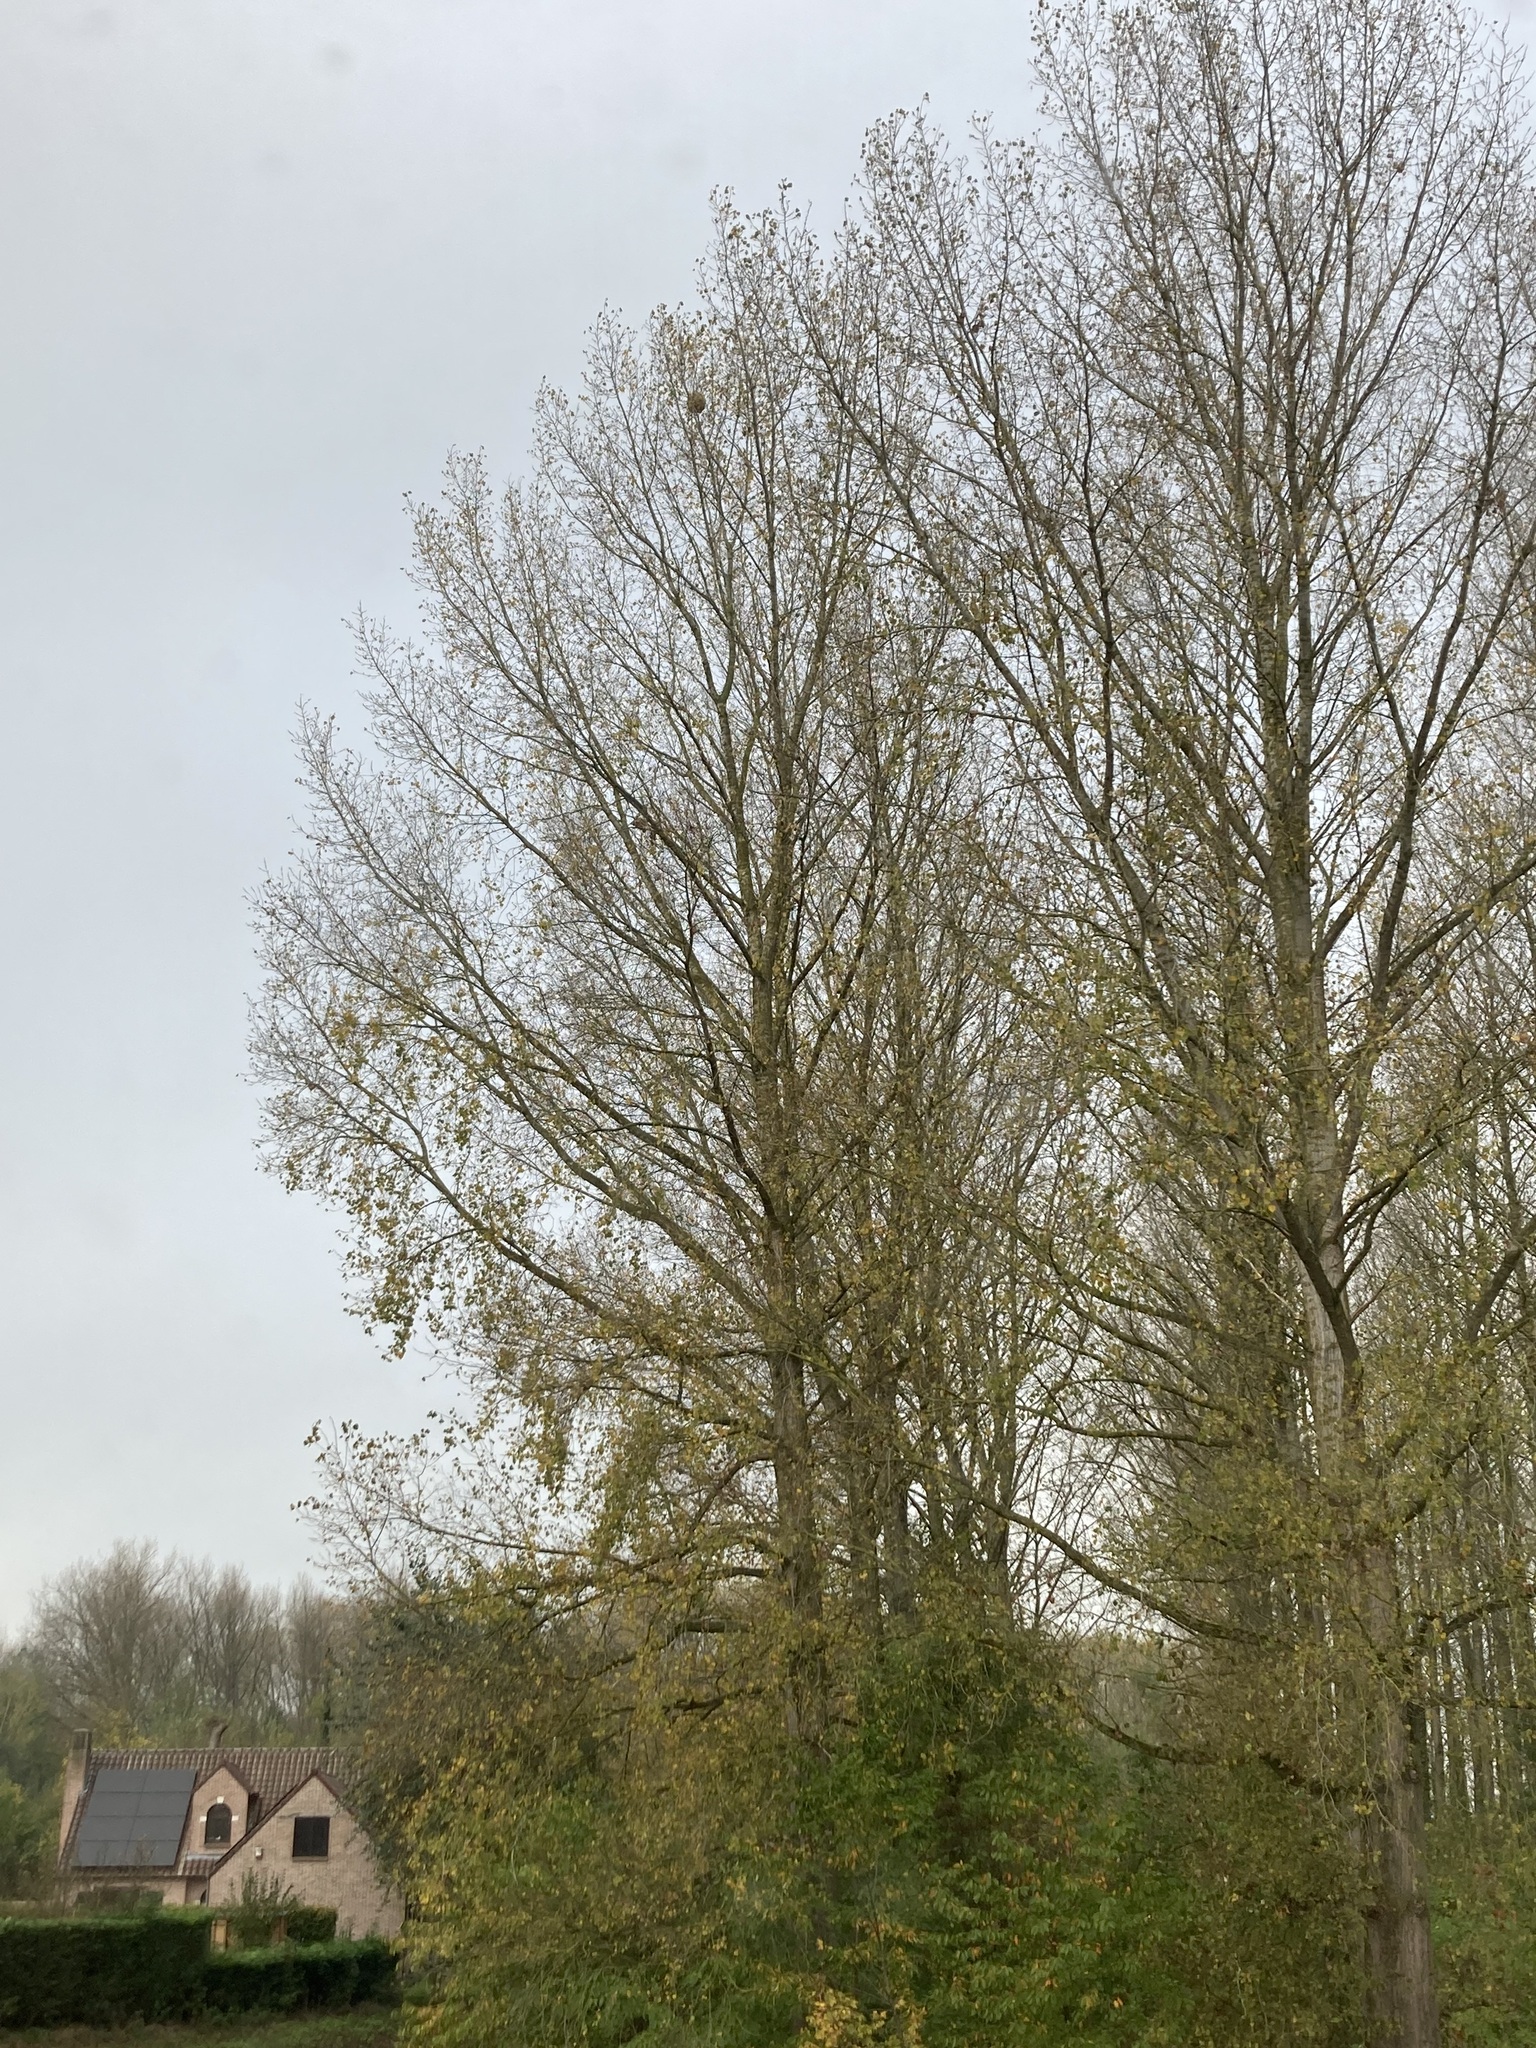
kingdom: Animalia
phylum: Arthropoda
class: Insecta
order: Hymenoptera
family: Vespidae
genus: Vespa
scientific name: Vespa velutina
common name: Asian hornet
